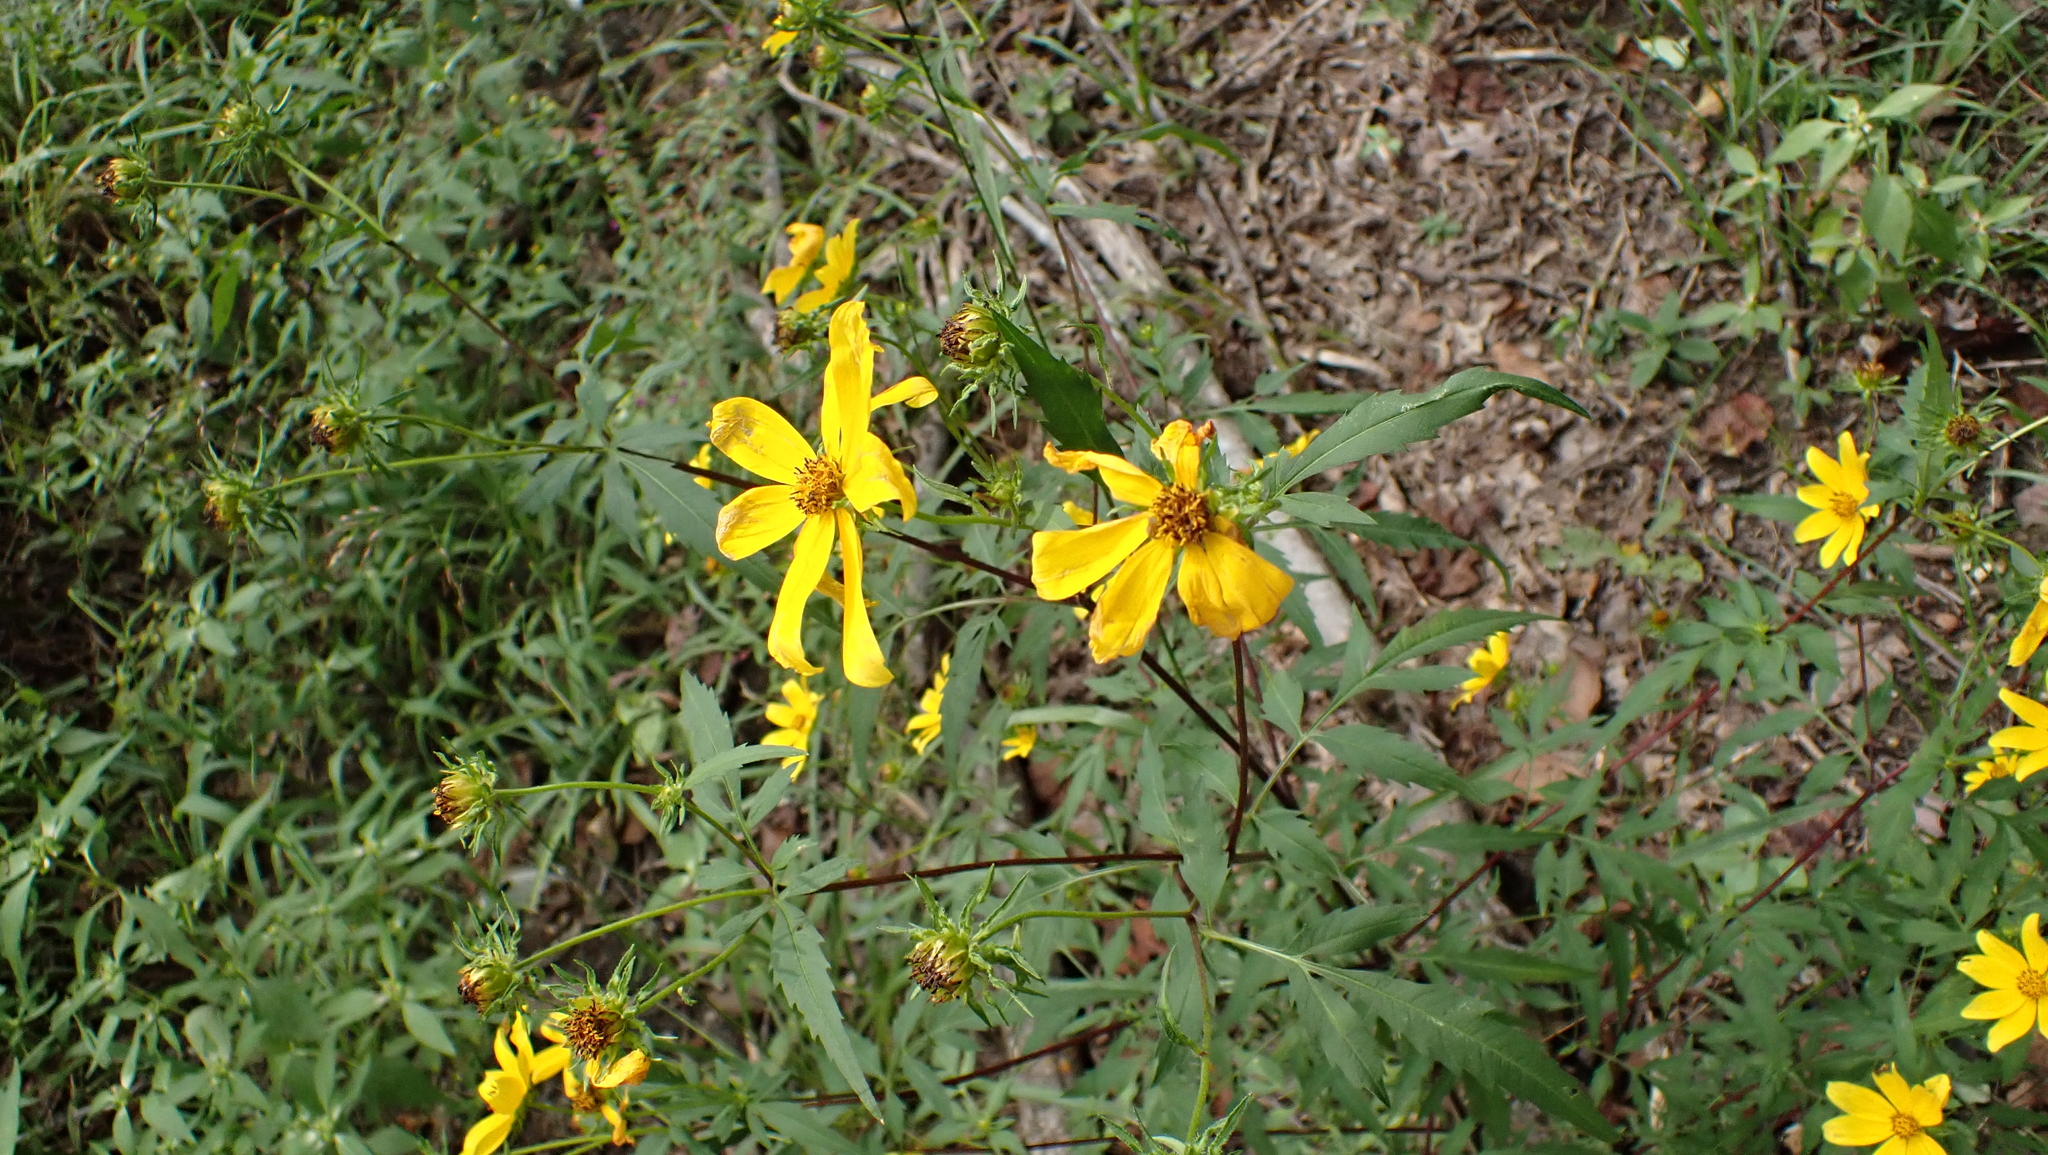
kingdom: Plantae
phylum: Tracheophyta
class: Magnoliopsida
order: Asterales
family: Asteraceae
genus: Bidens
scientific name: Bidens aristosa
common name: Western tickseed
